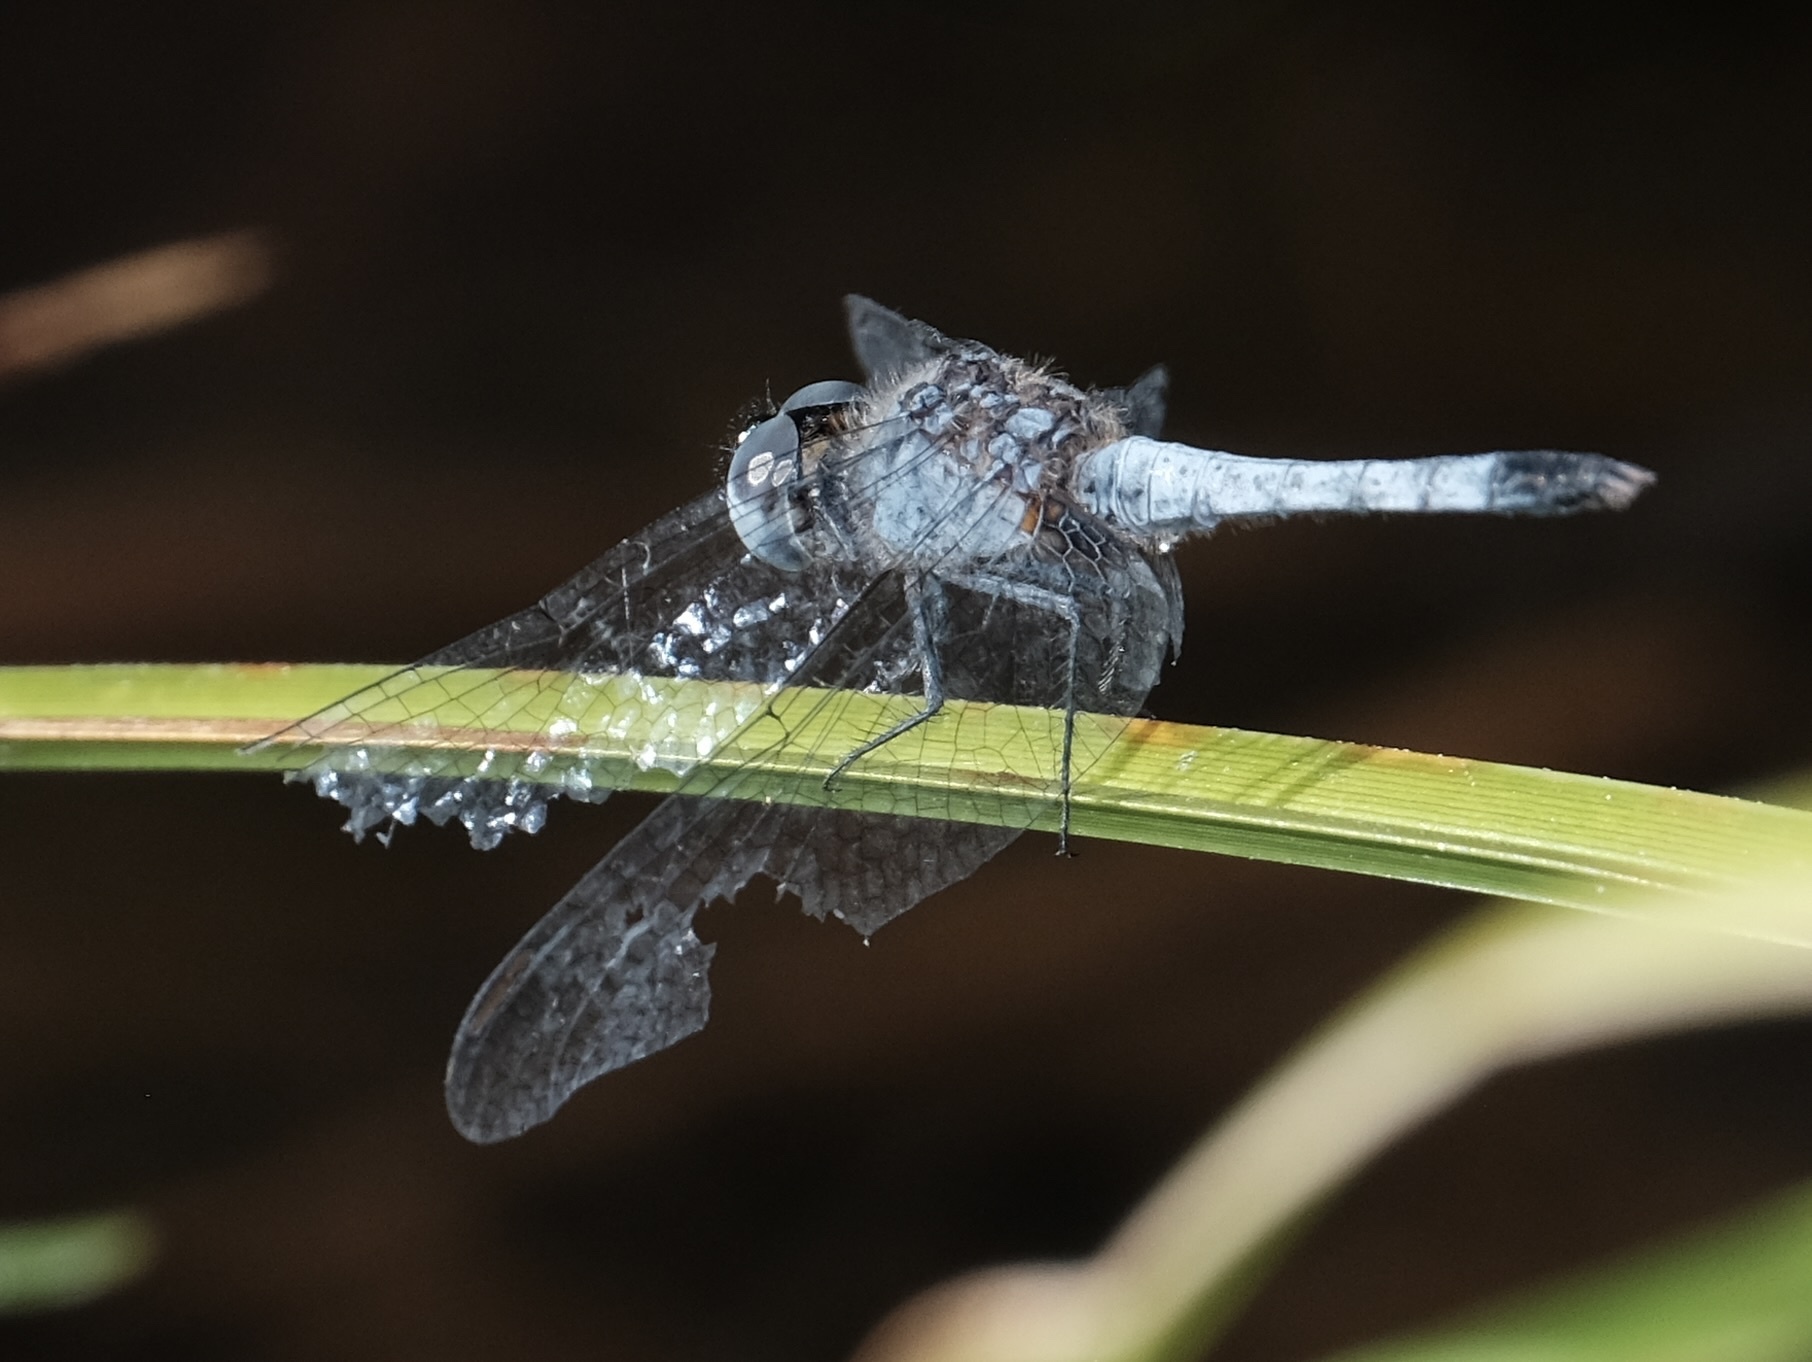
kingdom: Animalia
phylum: Arthropoda
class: Insecta
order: Odonata
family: Libellulidae
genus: Erythrodiplax
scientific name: Erythrodiplax minuscula
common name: Little blue dragonlet
